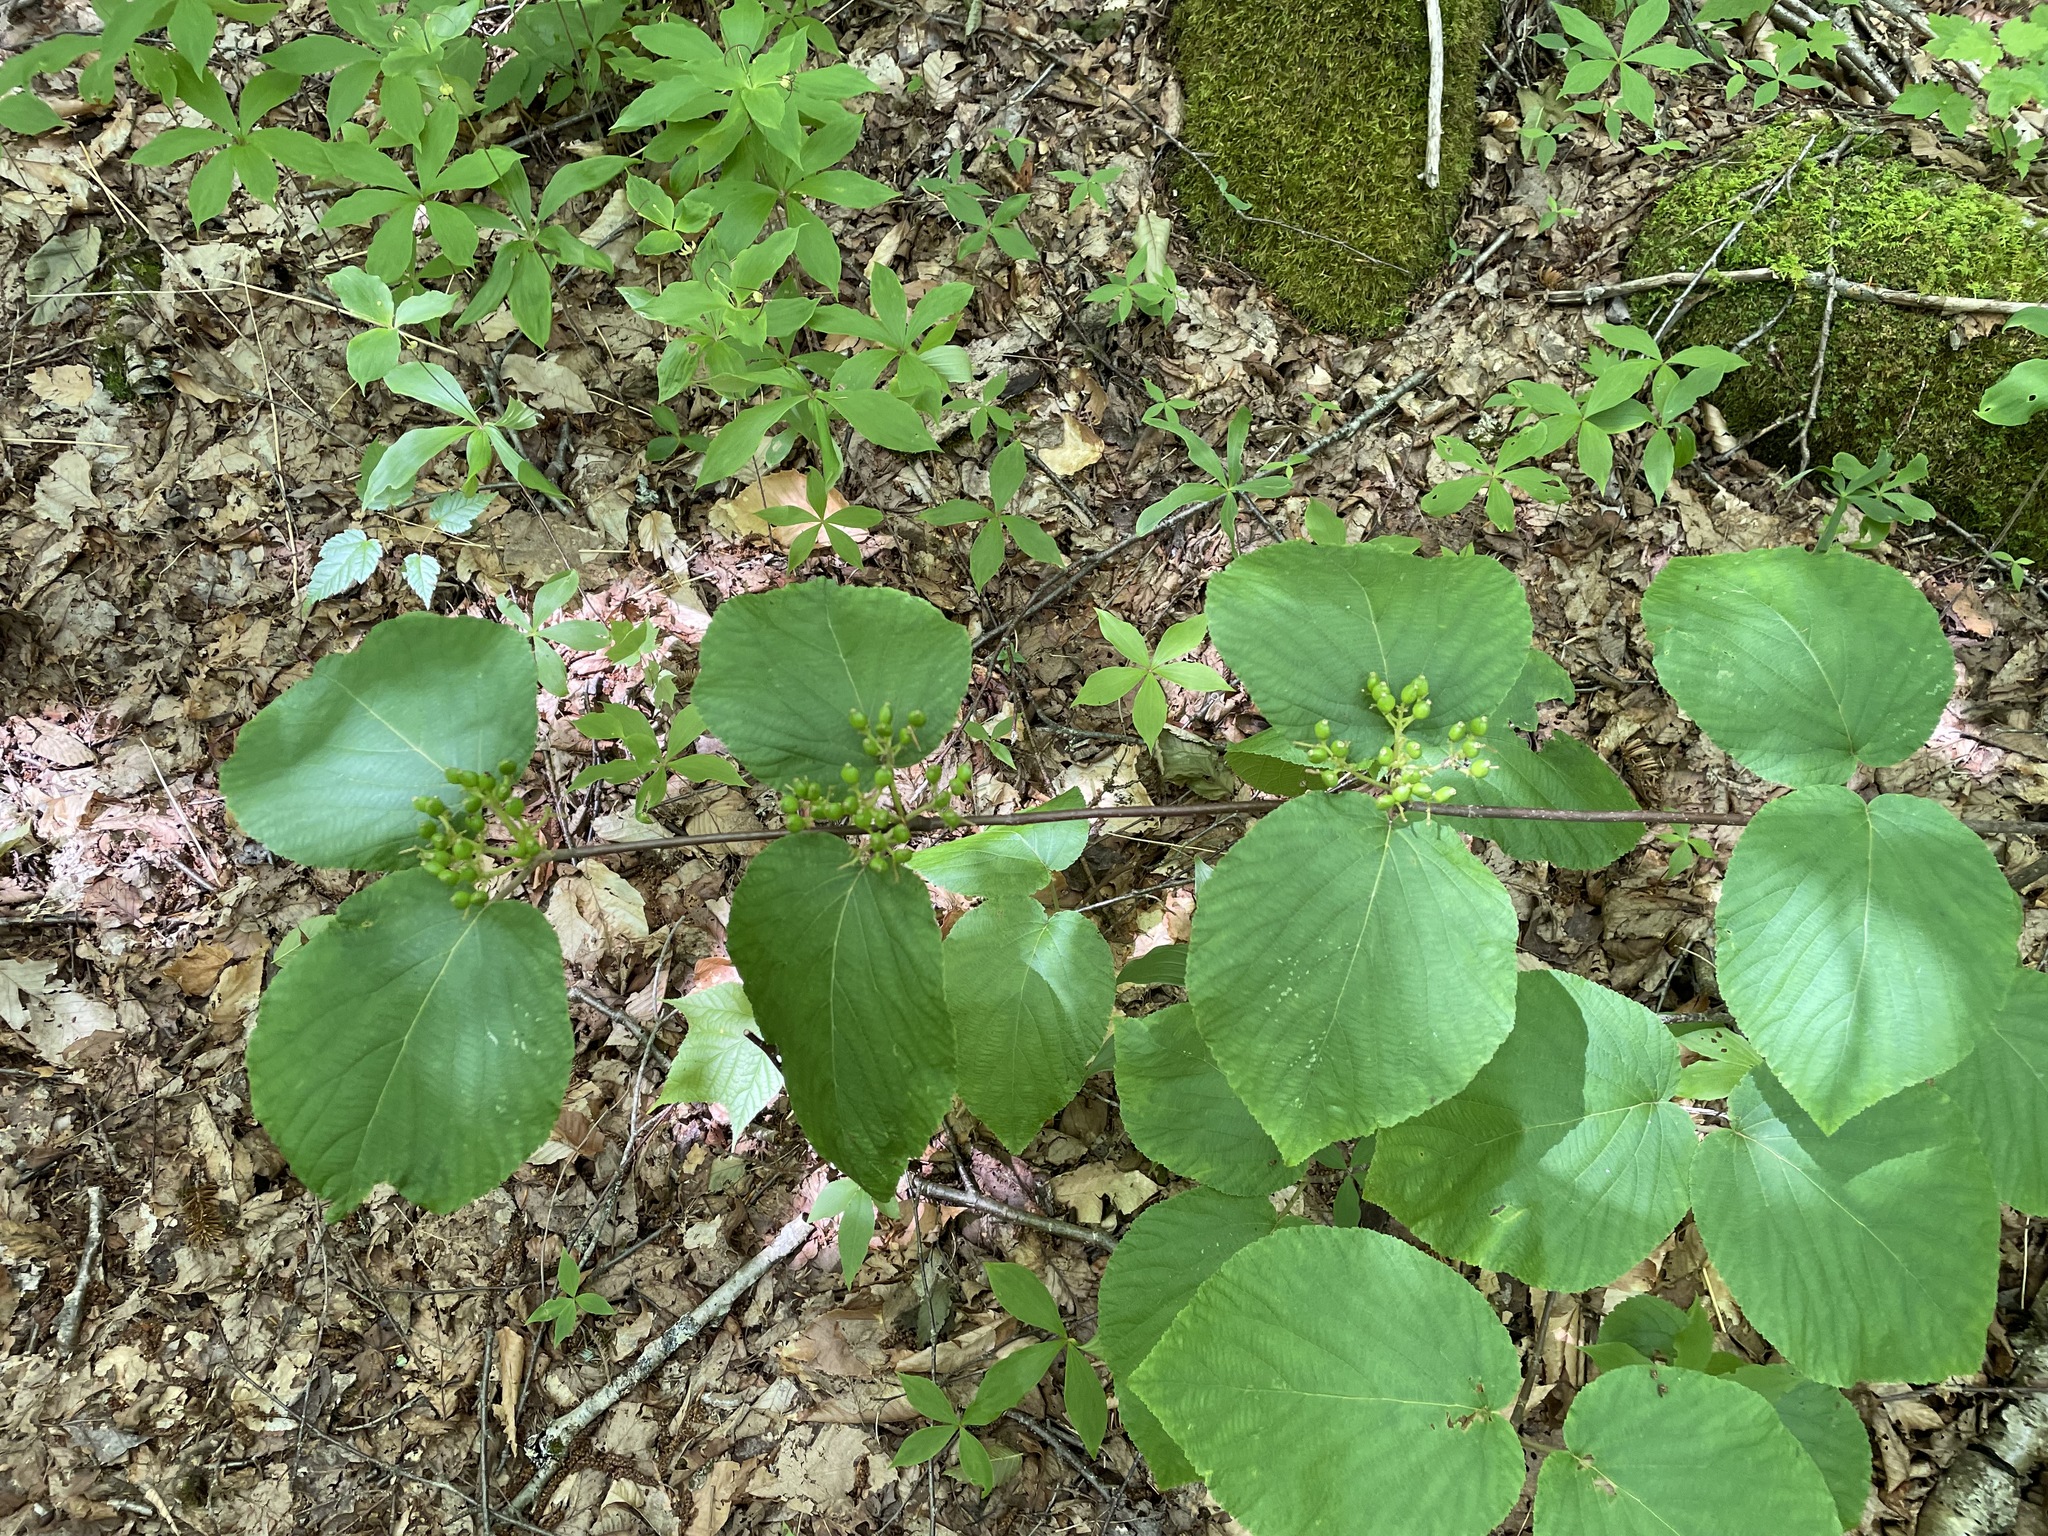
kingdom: Plantae
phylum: Tracheophyta
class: Magnoliopsida
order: Dipsacales
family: Viburnaceae
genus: Viburnum
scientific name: Viburnum lantanoides
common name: Hobblebush
